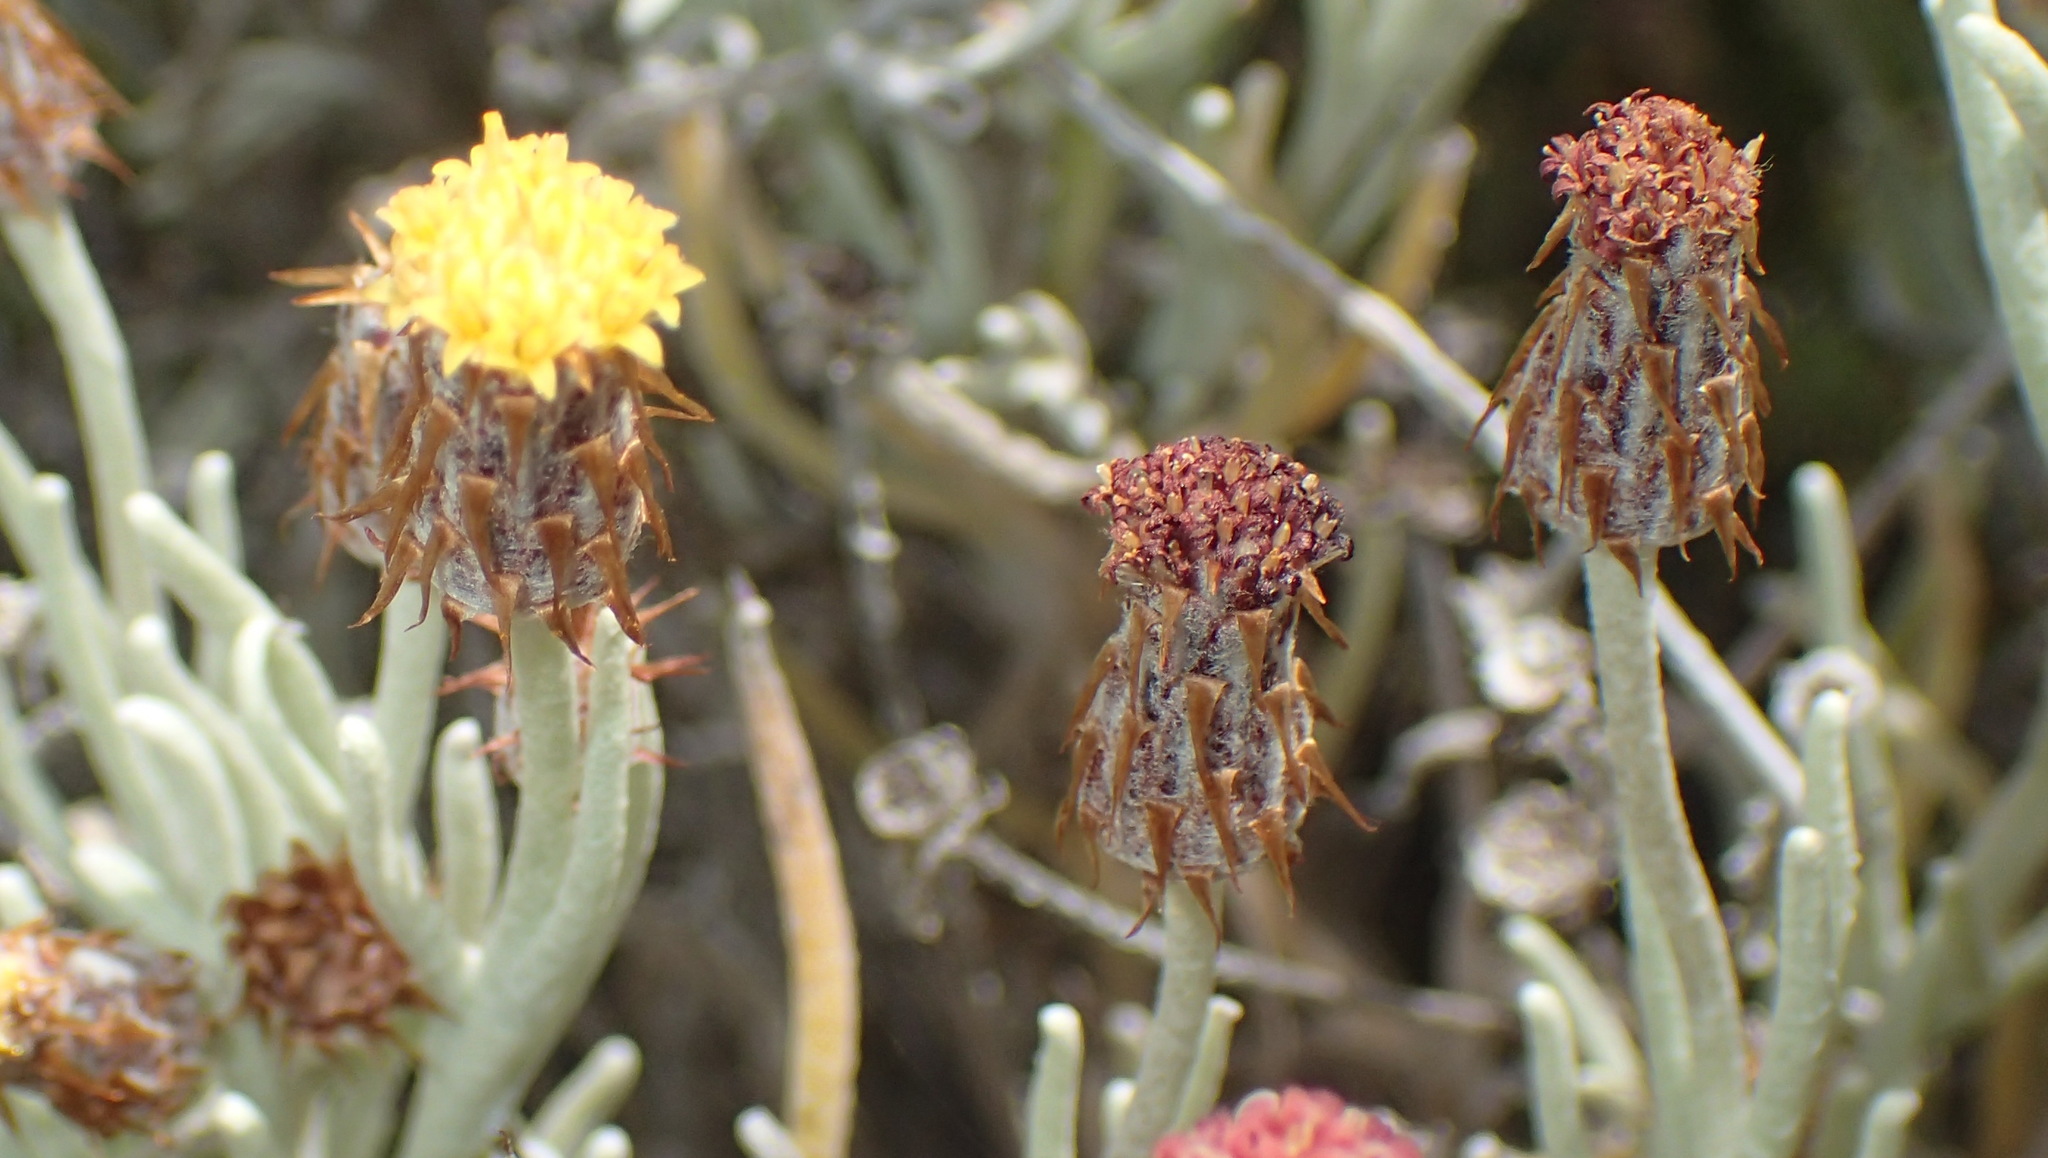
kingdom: Plantae
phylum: Tracheophyta
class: Magnoliopsida
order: Asterales
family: Asteraceae
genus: Syncarpha
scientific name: Syncarpha gnaphaloides
